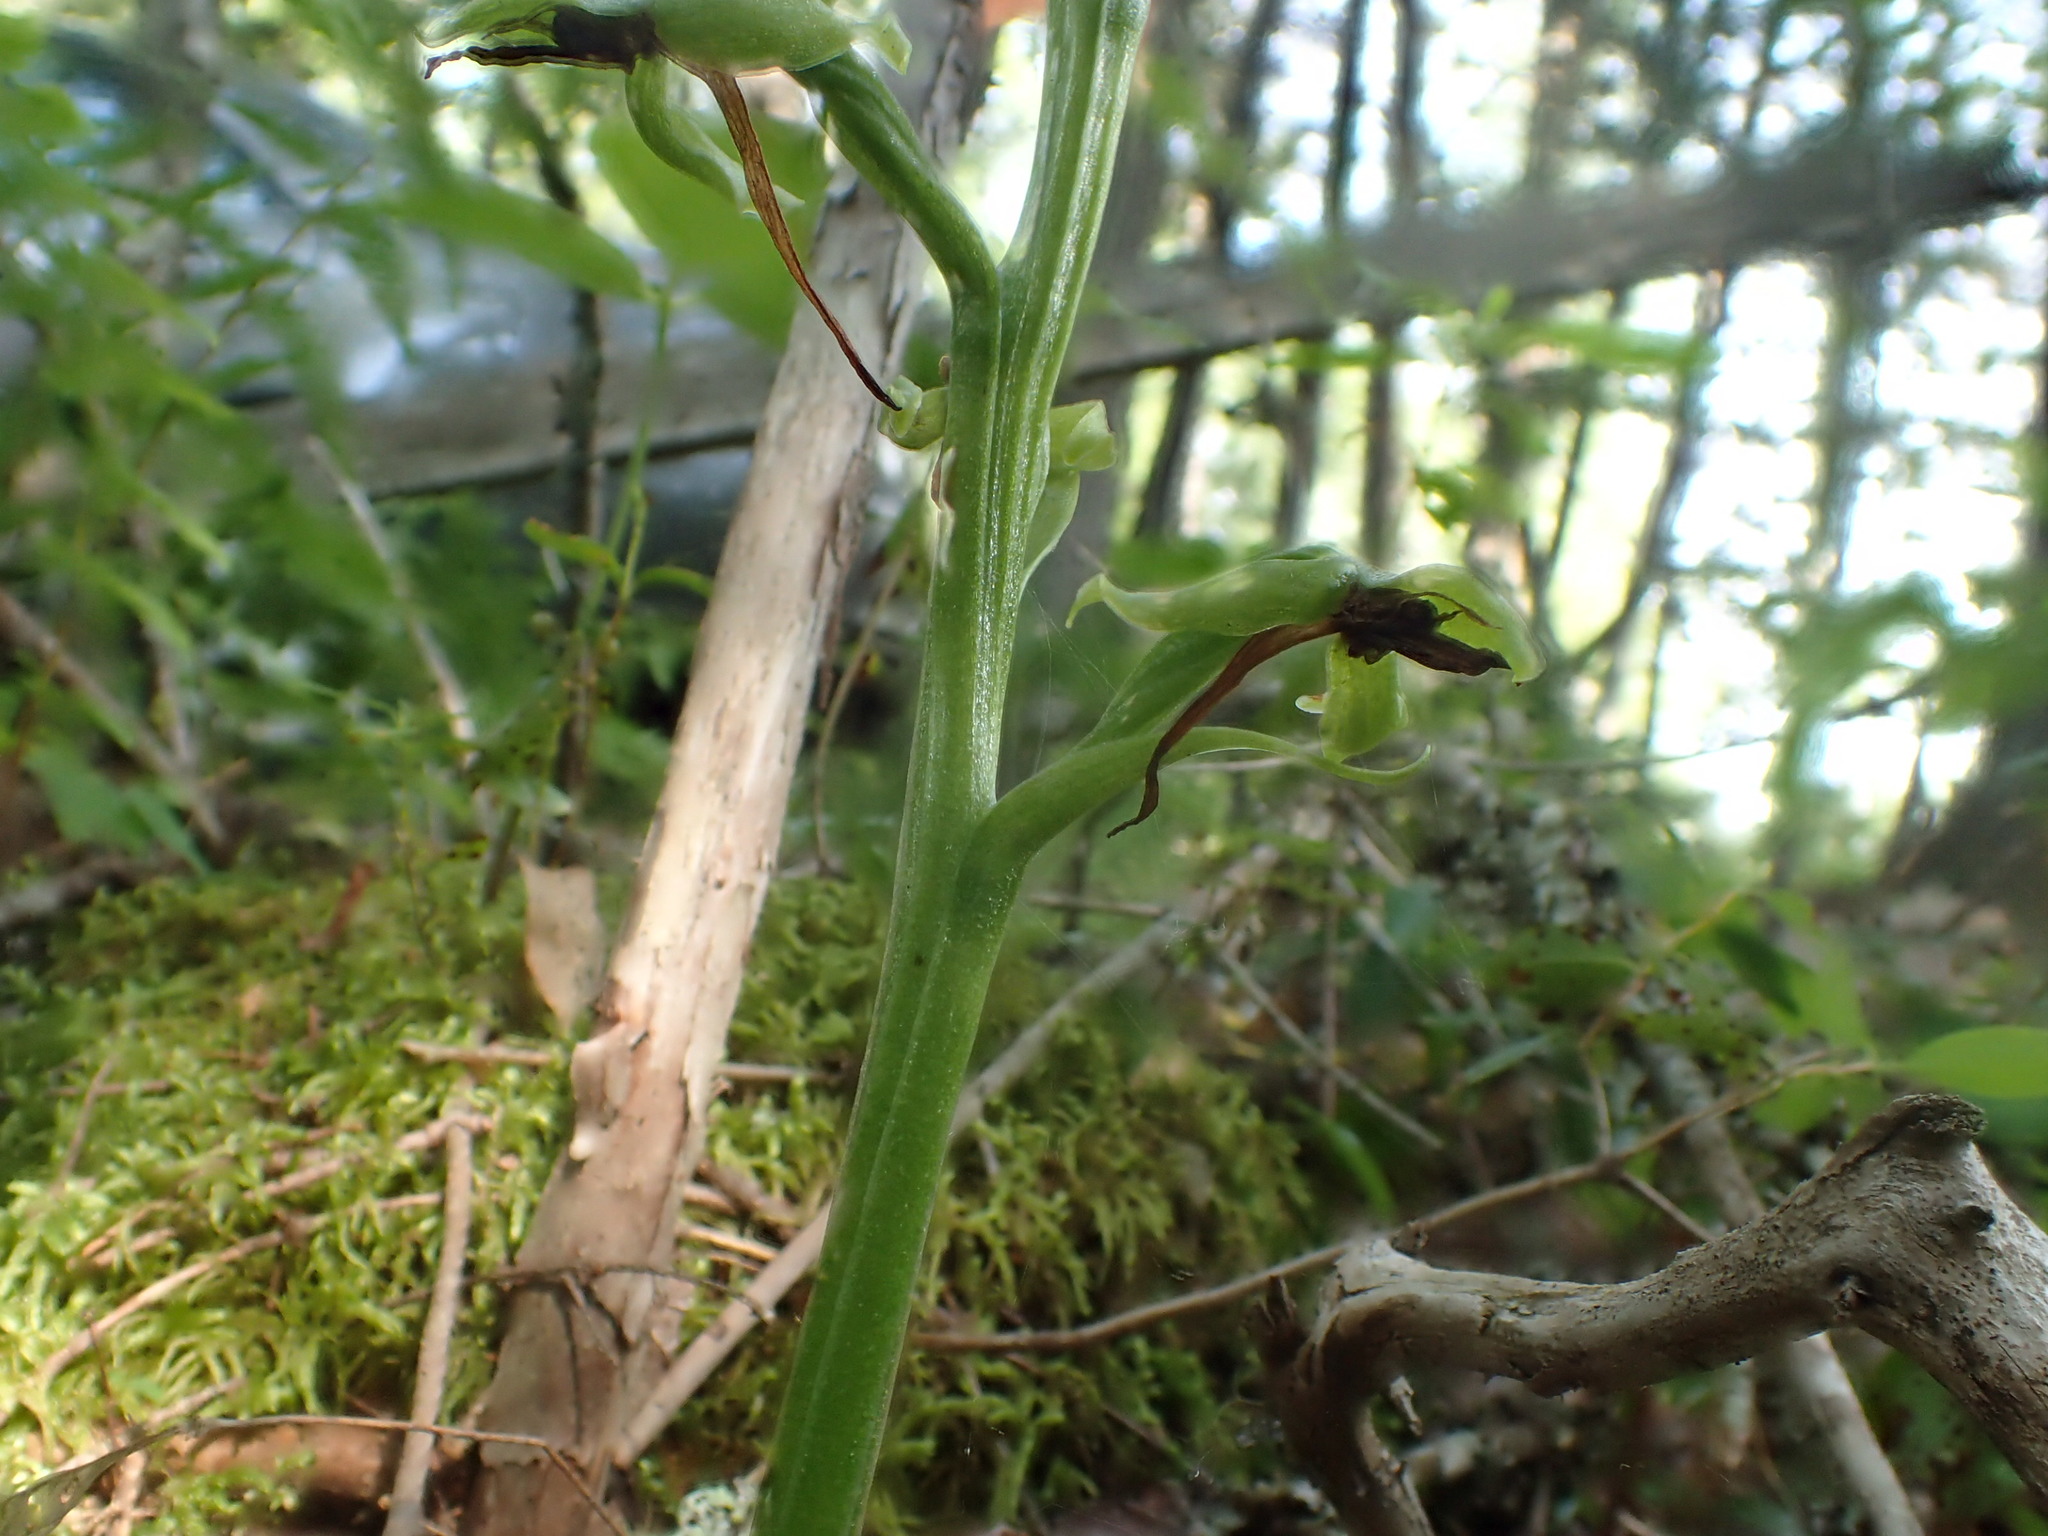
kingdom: Plantae
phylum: Tracheophyta
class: Liliopsida
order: Asparagales
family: Orchidaceae
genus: Platanthera
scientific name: Platanthera hookeri
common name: Hooker's orchid
